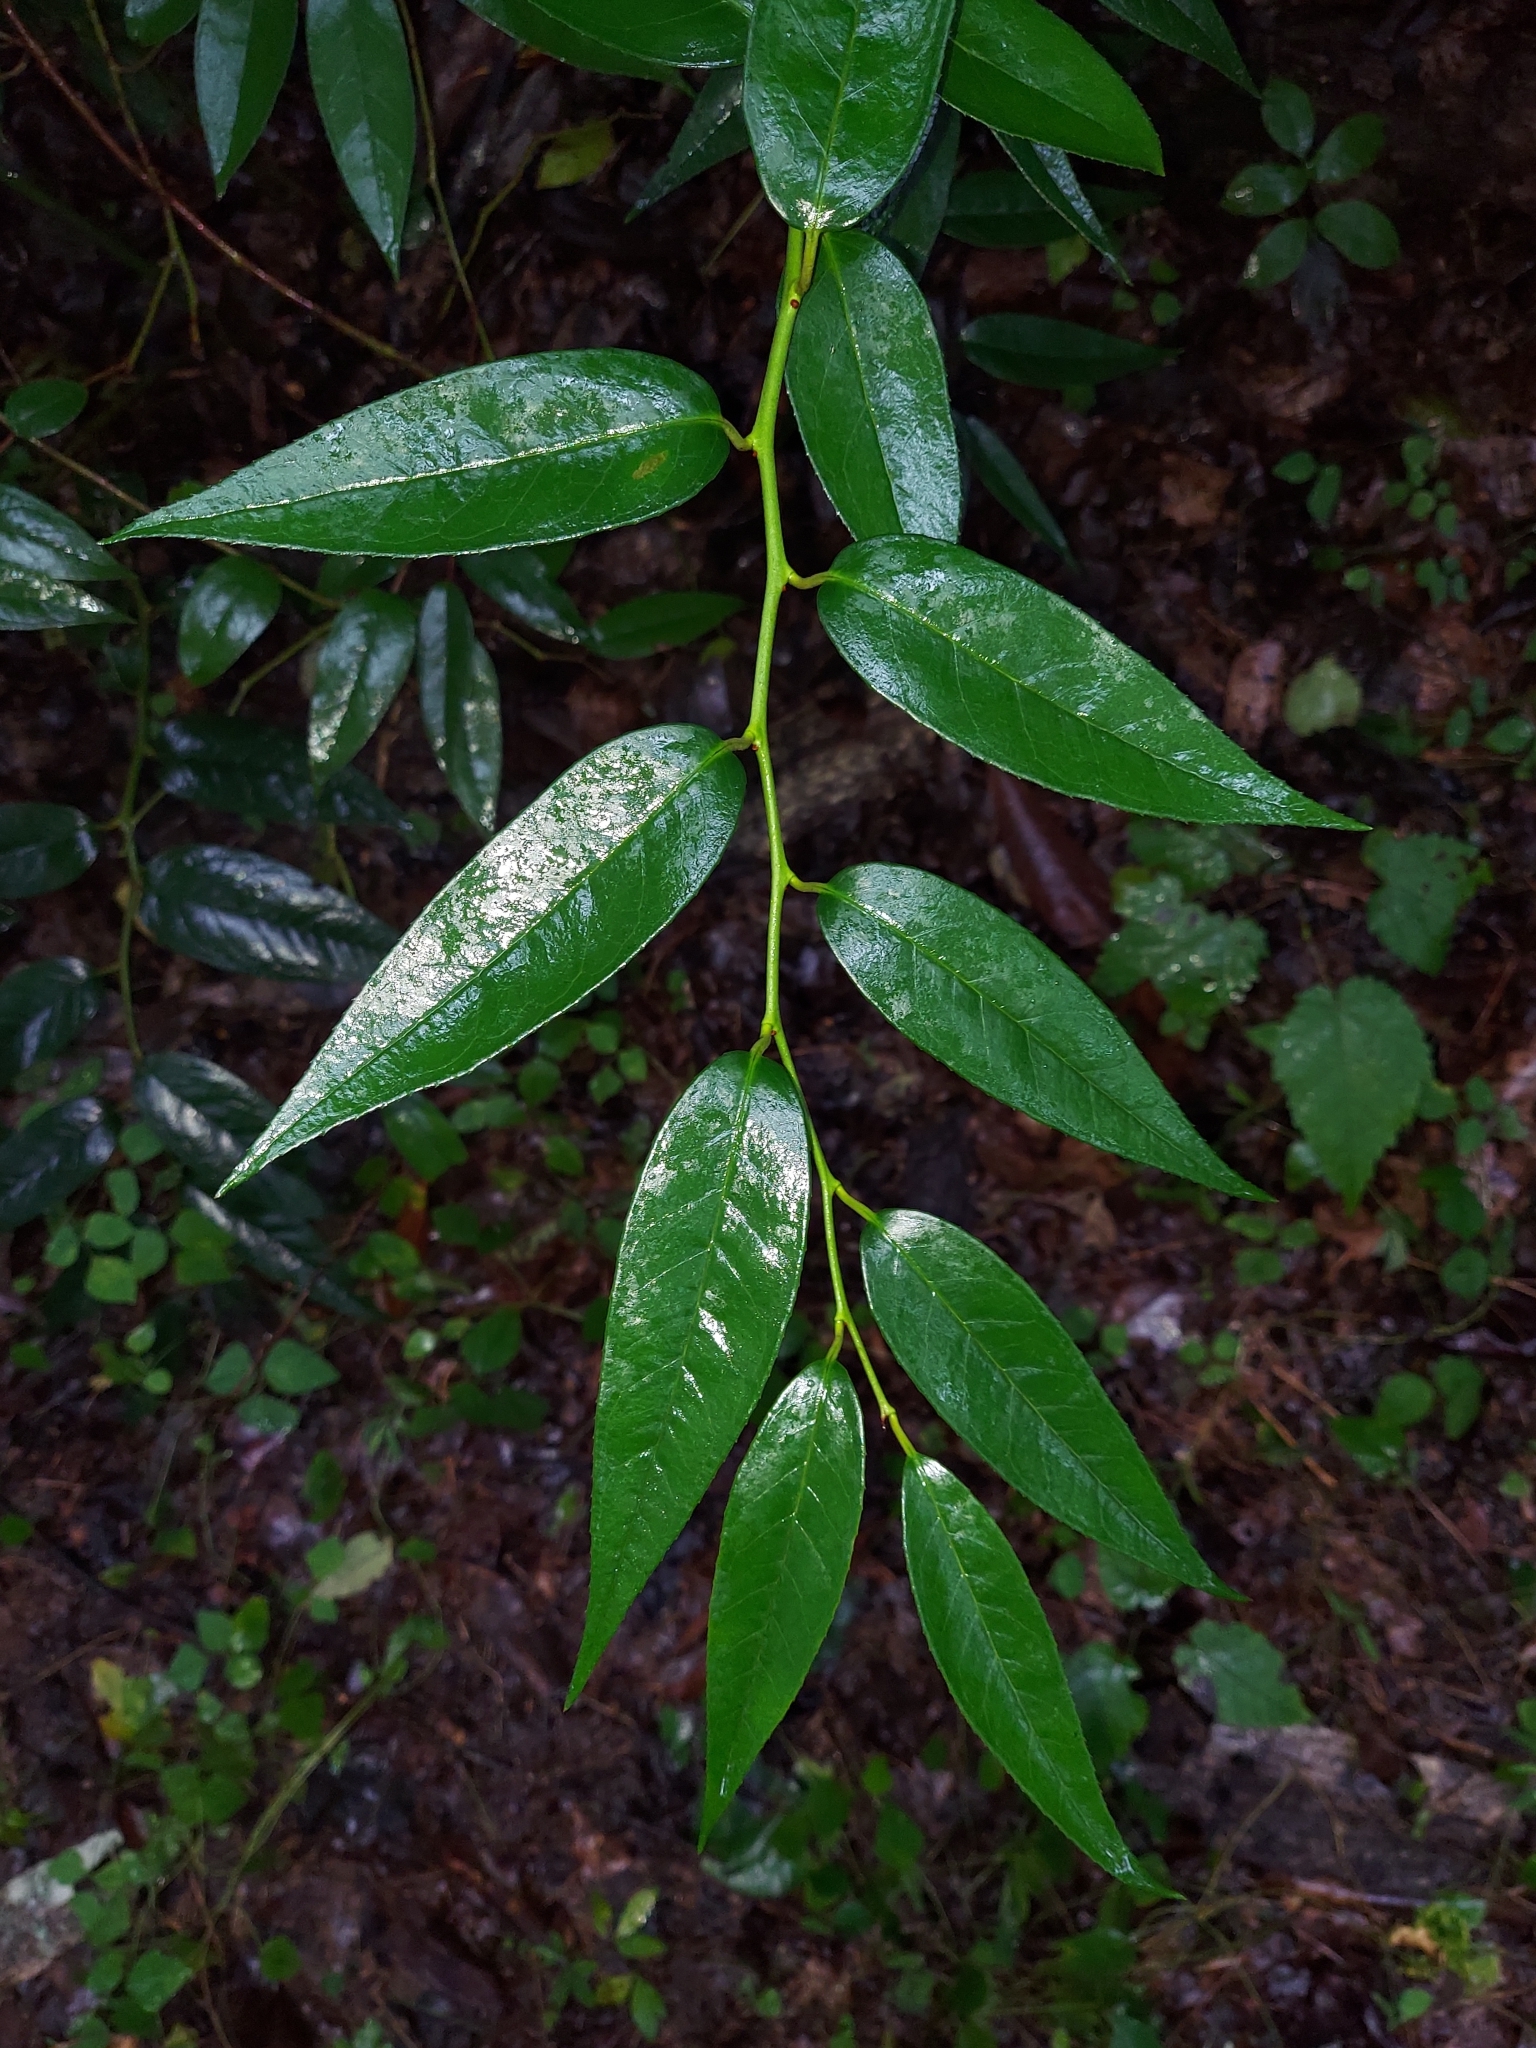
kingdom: Plantae
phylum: Tracheophyta
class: Magnoliopsida
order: Ericales
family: Ericaceae
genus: Leucothoe
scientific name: Leucothoe fontanesiana
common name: Fetterbush
